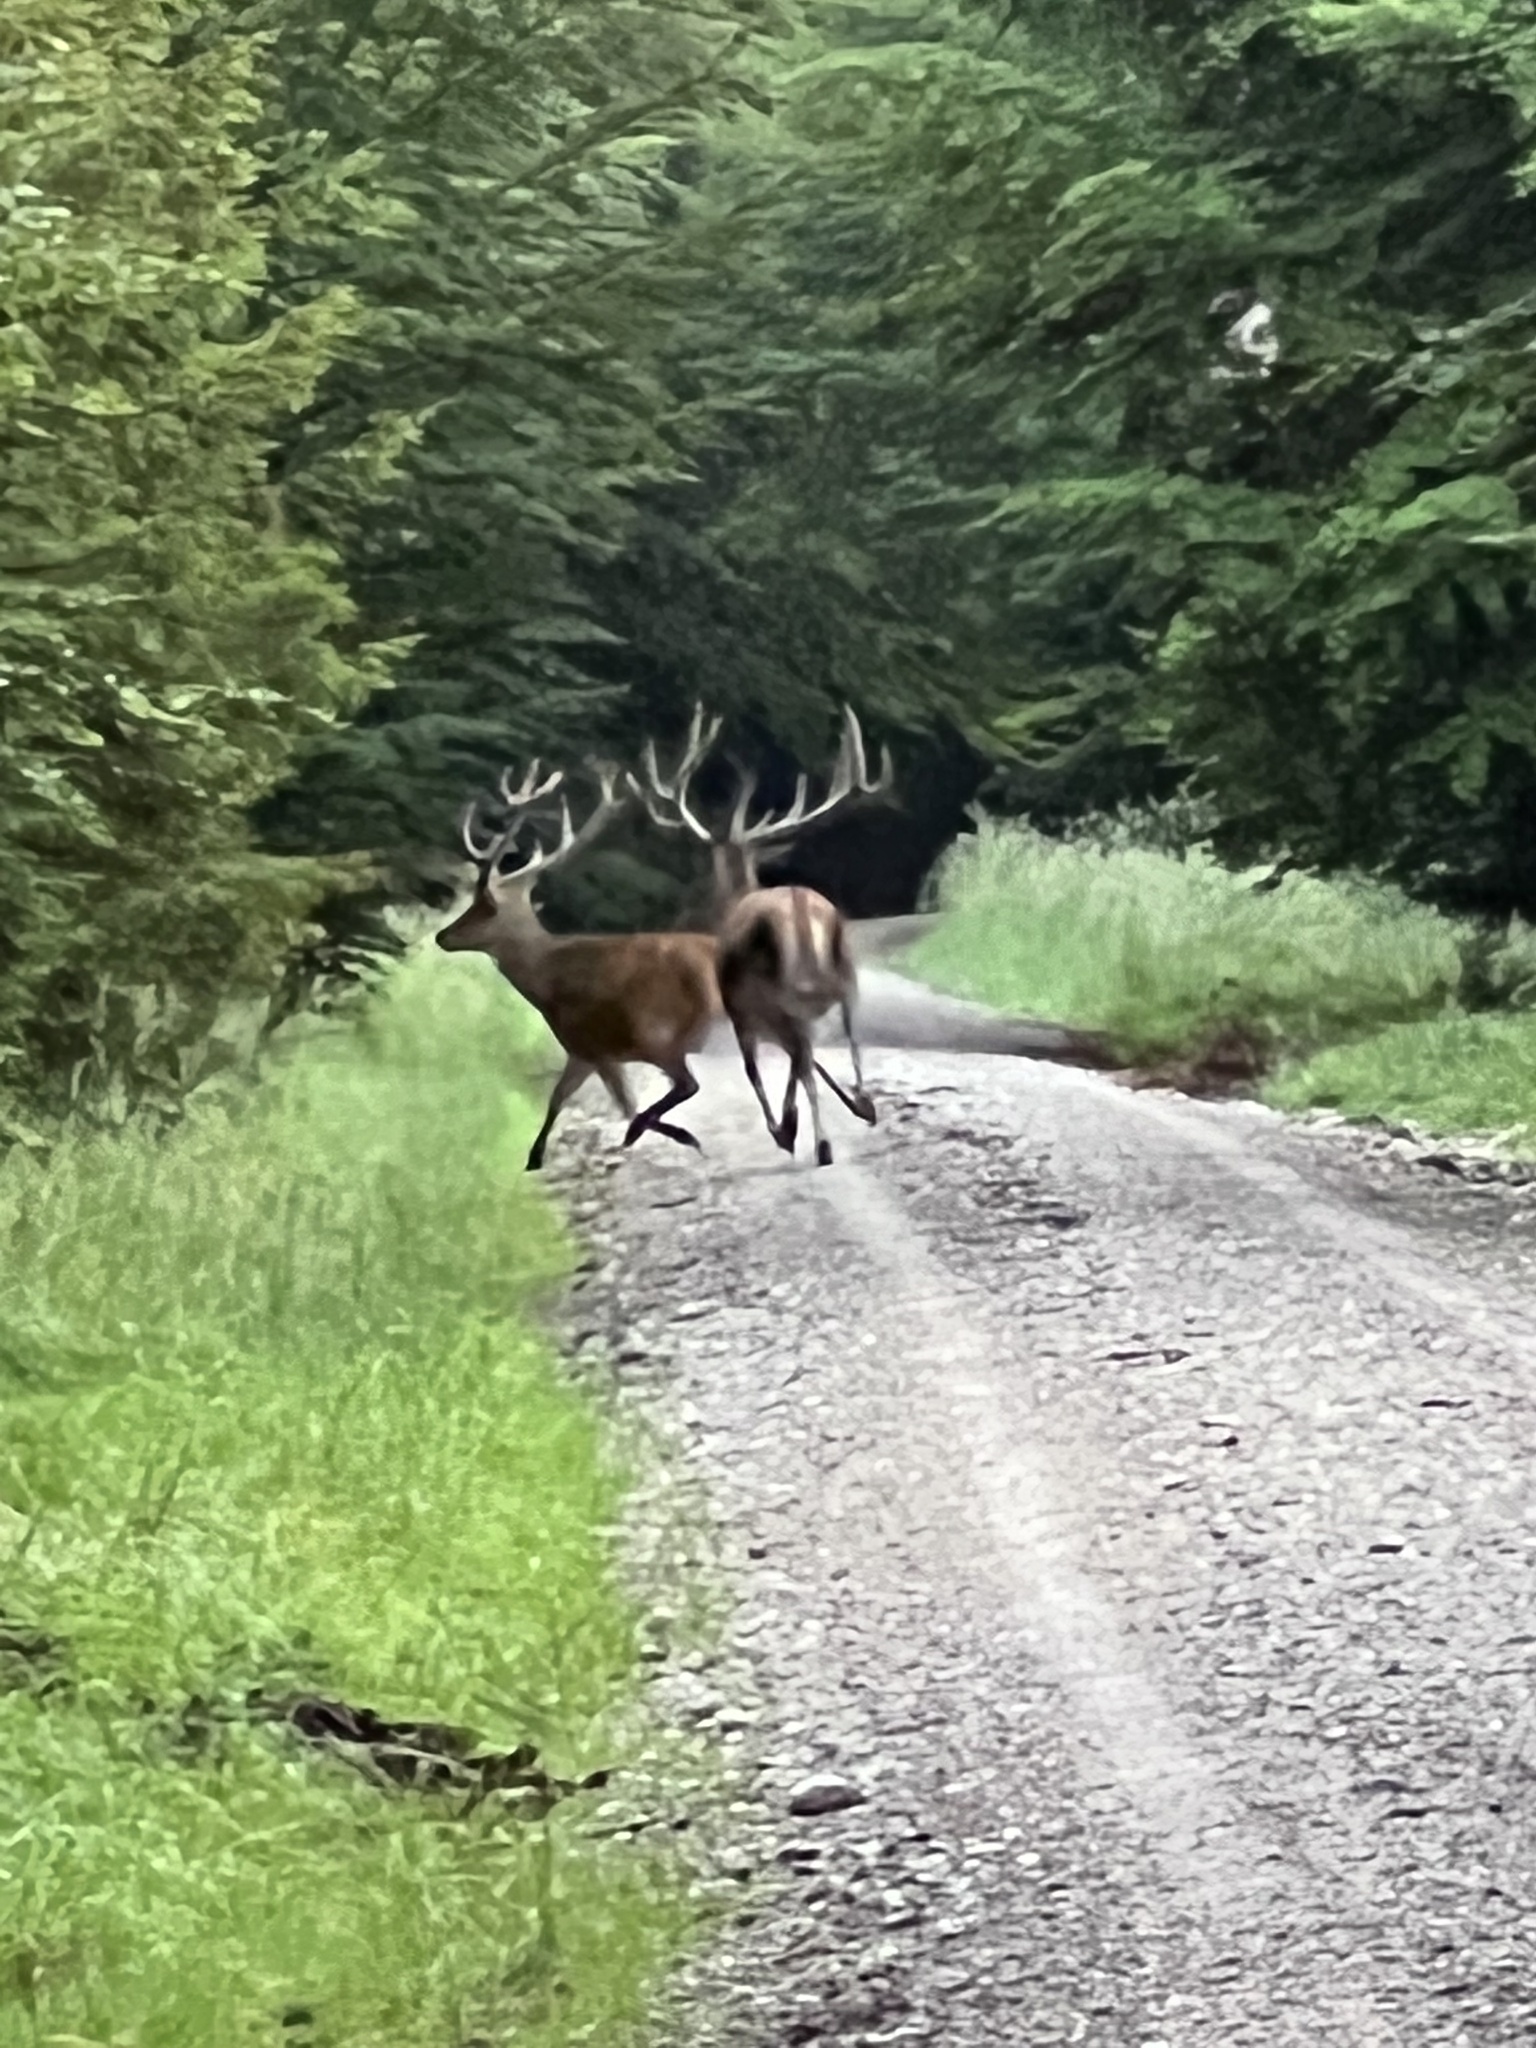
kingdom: Animalia
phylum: Chordata
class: Mammalia
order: Artiodactyla
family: Cervidae
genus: Cervus
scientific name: Cervus elaphus
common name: Red deer
